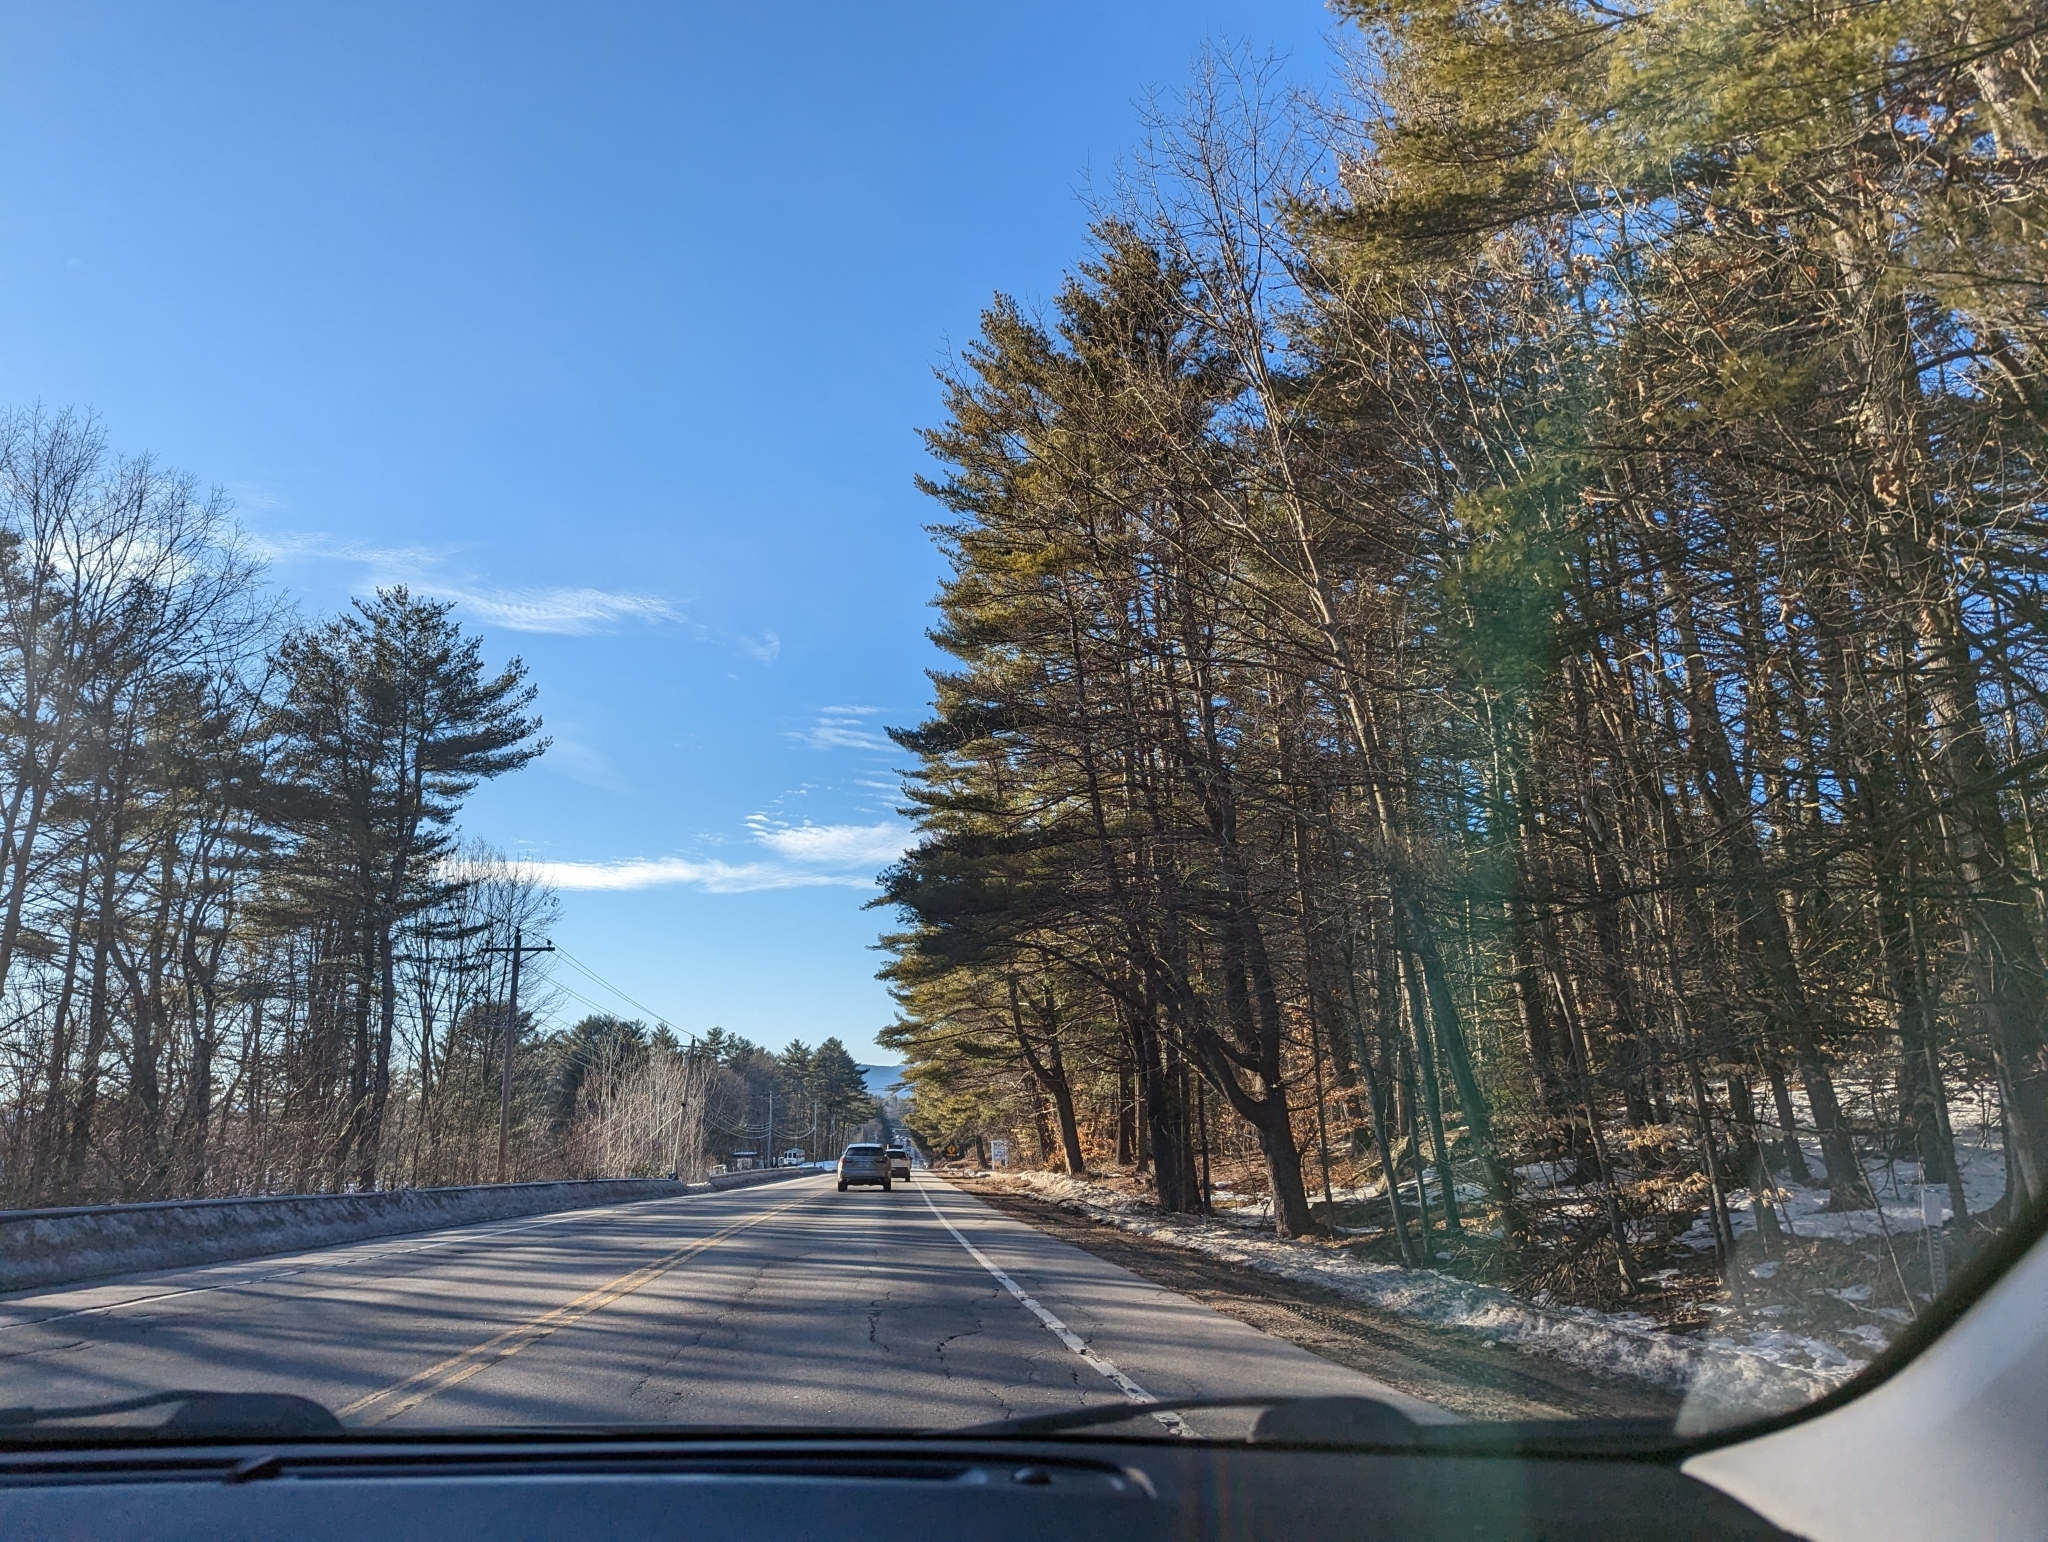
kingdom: Plantae
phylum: Tracheophyta
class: Pinopsida
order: Pinales
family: Pinaceae
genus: Pinus
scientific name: Pinus strobus
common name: Weymouth pine
